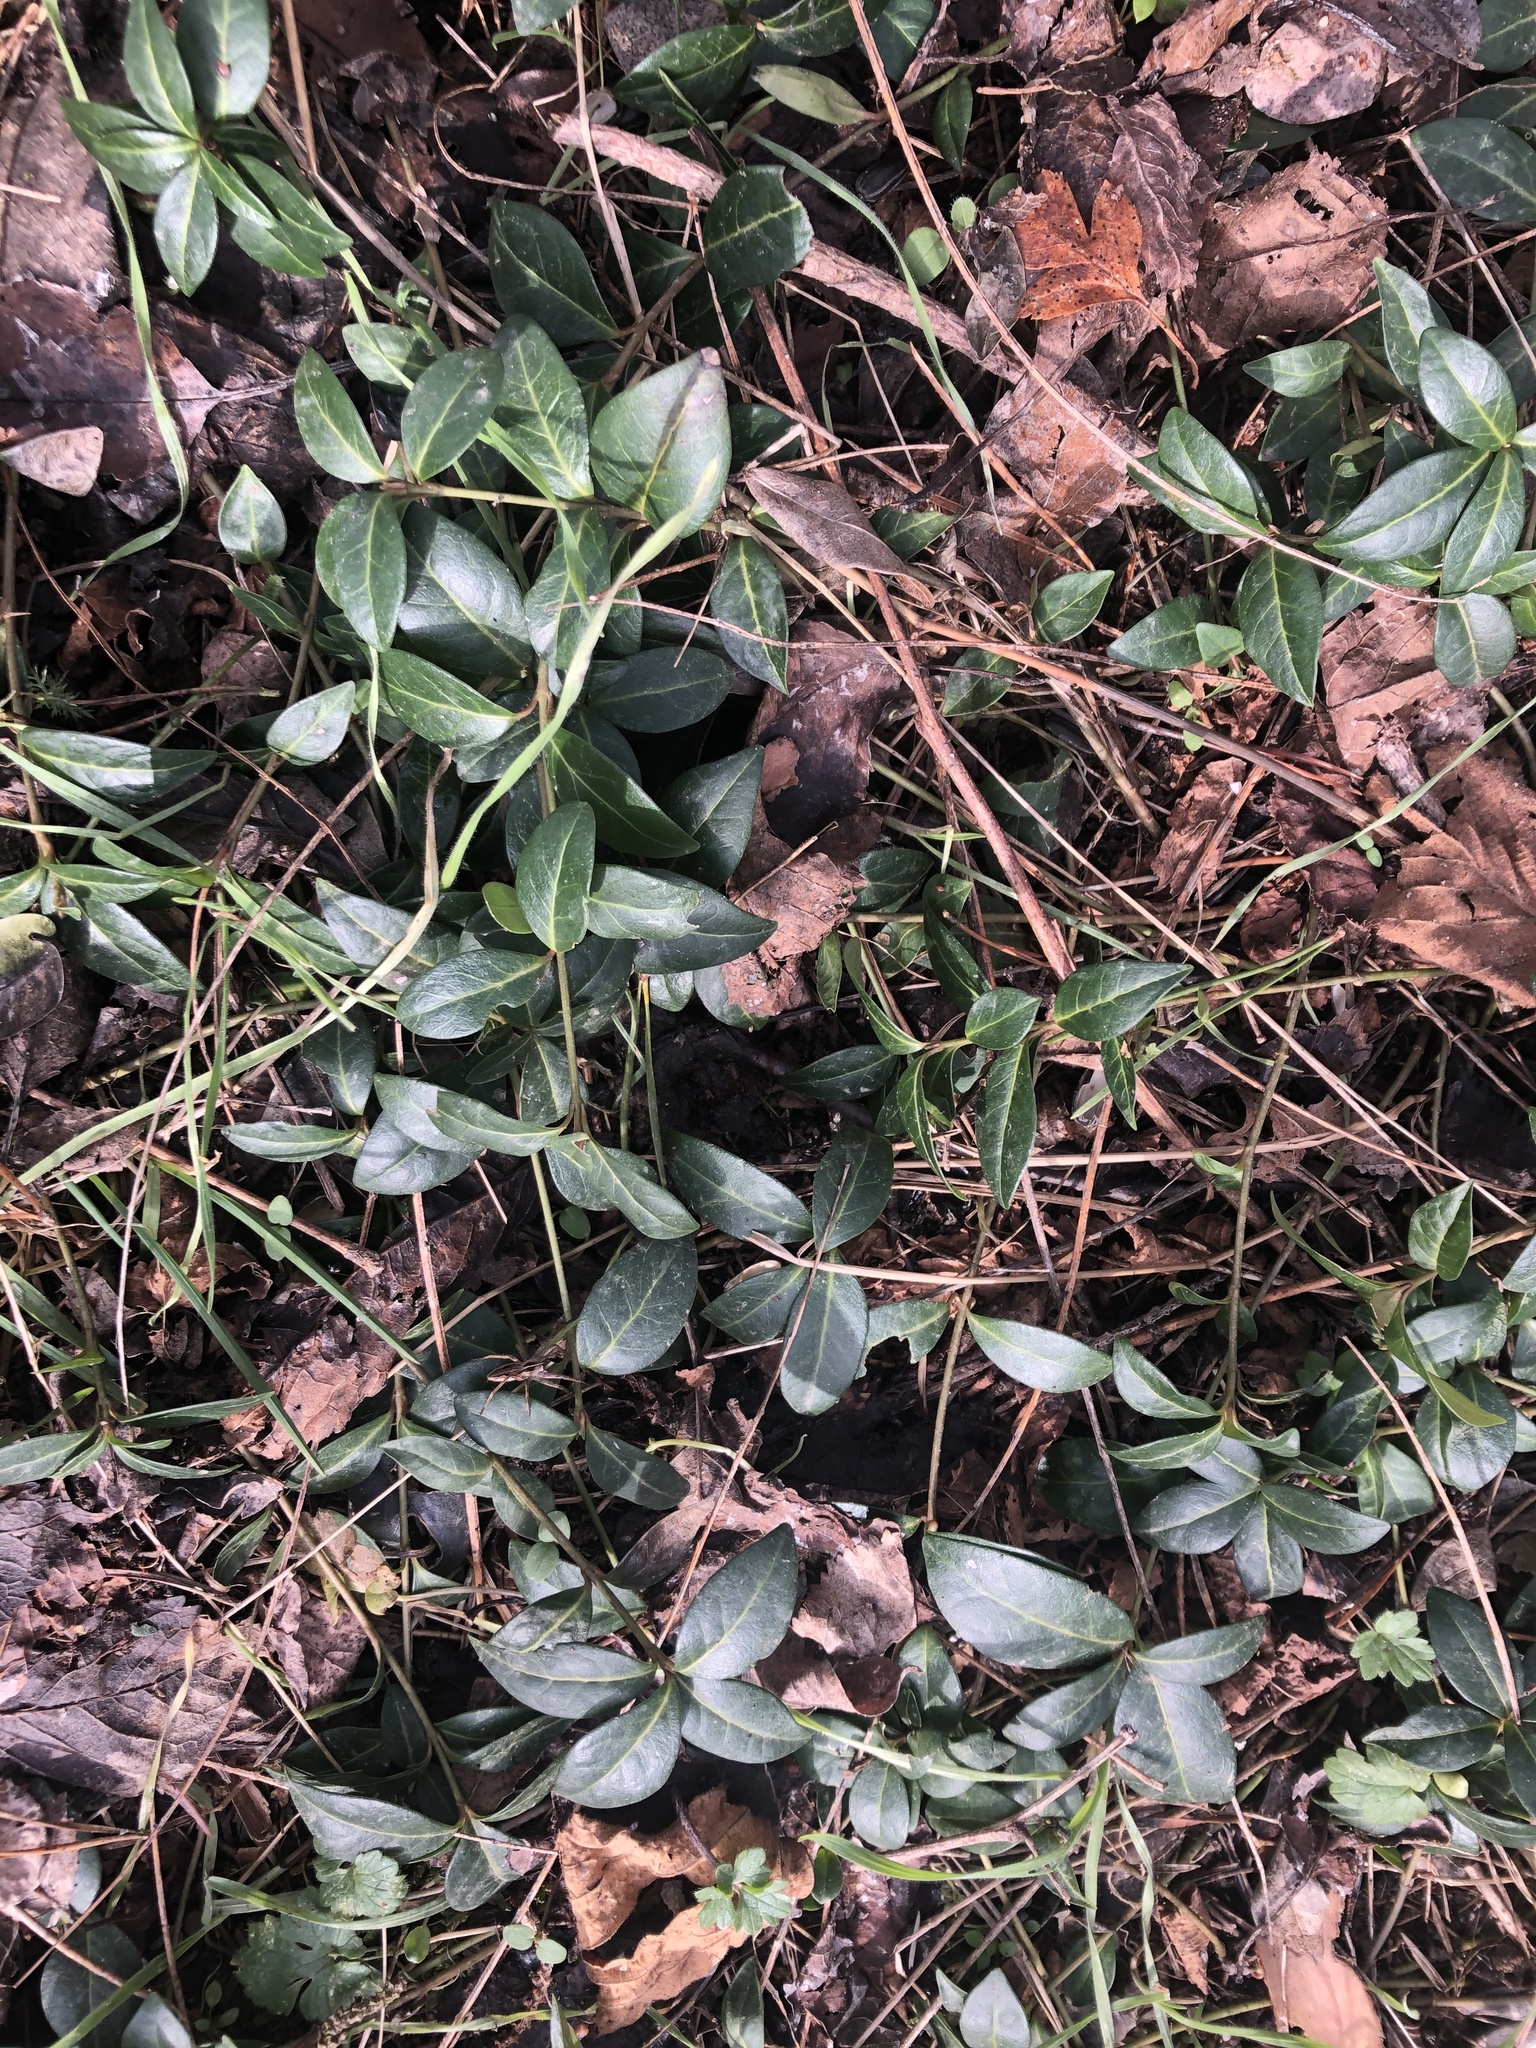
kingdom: Plantae
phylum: Tracheophyta
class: Magnoliopsida
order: Gentianales
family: Apocynaceae
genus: Vinca
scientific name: Vinca minor
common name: Lesser periwinkle
